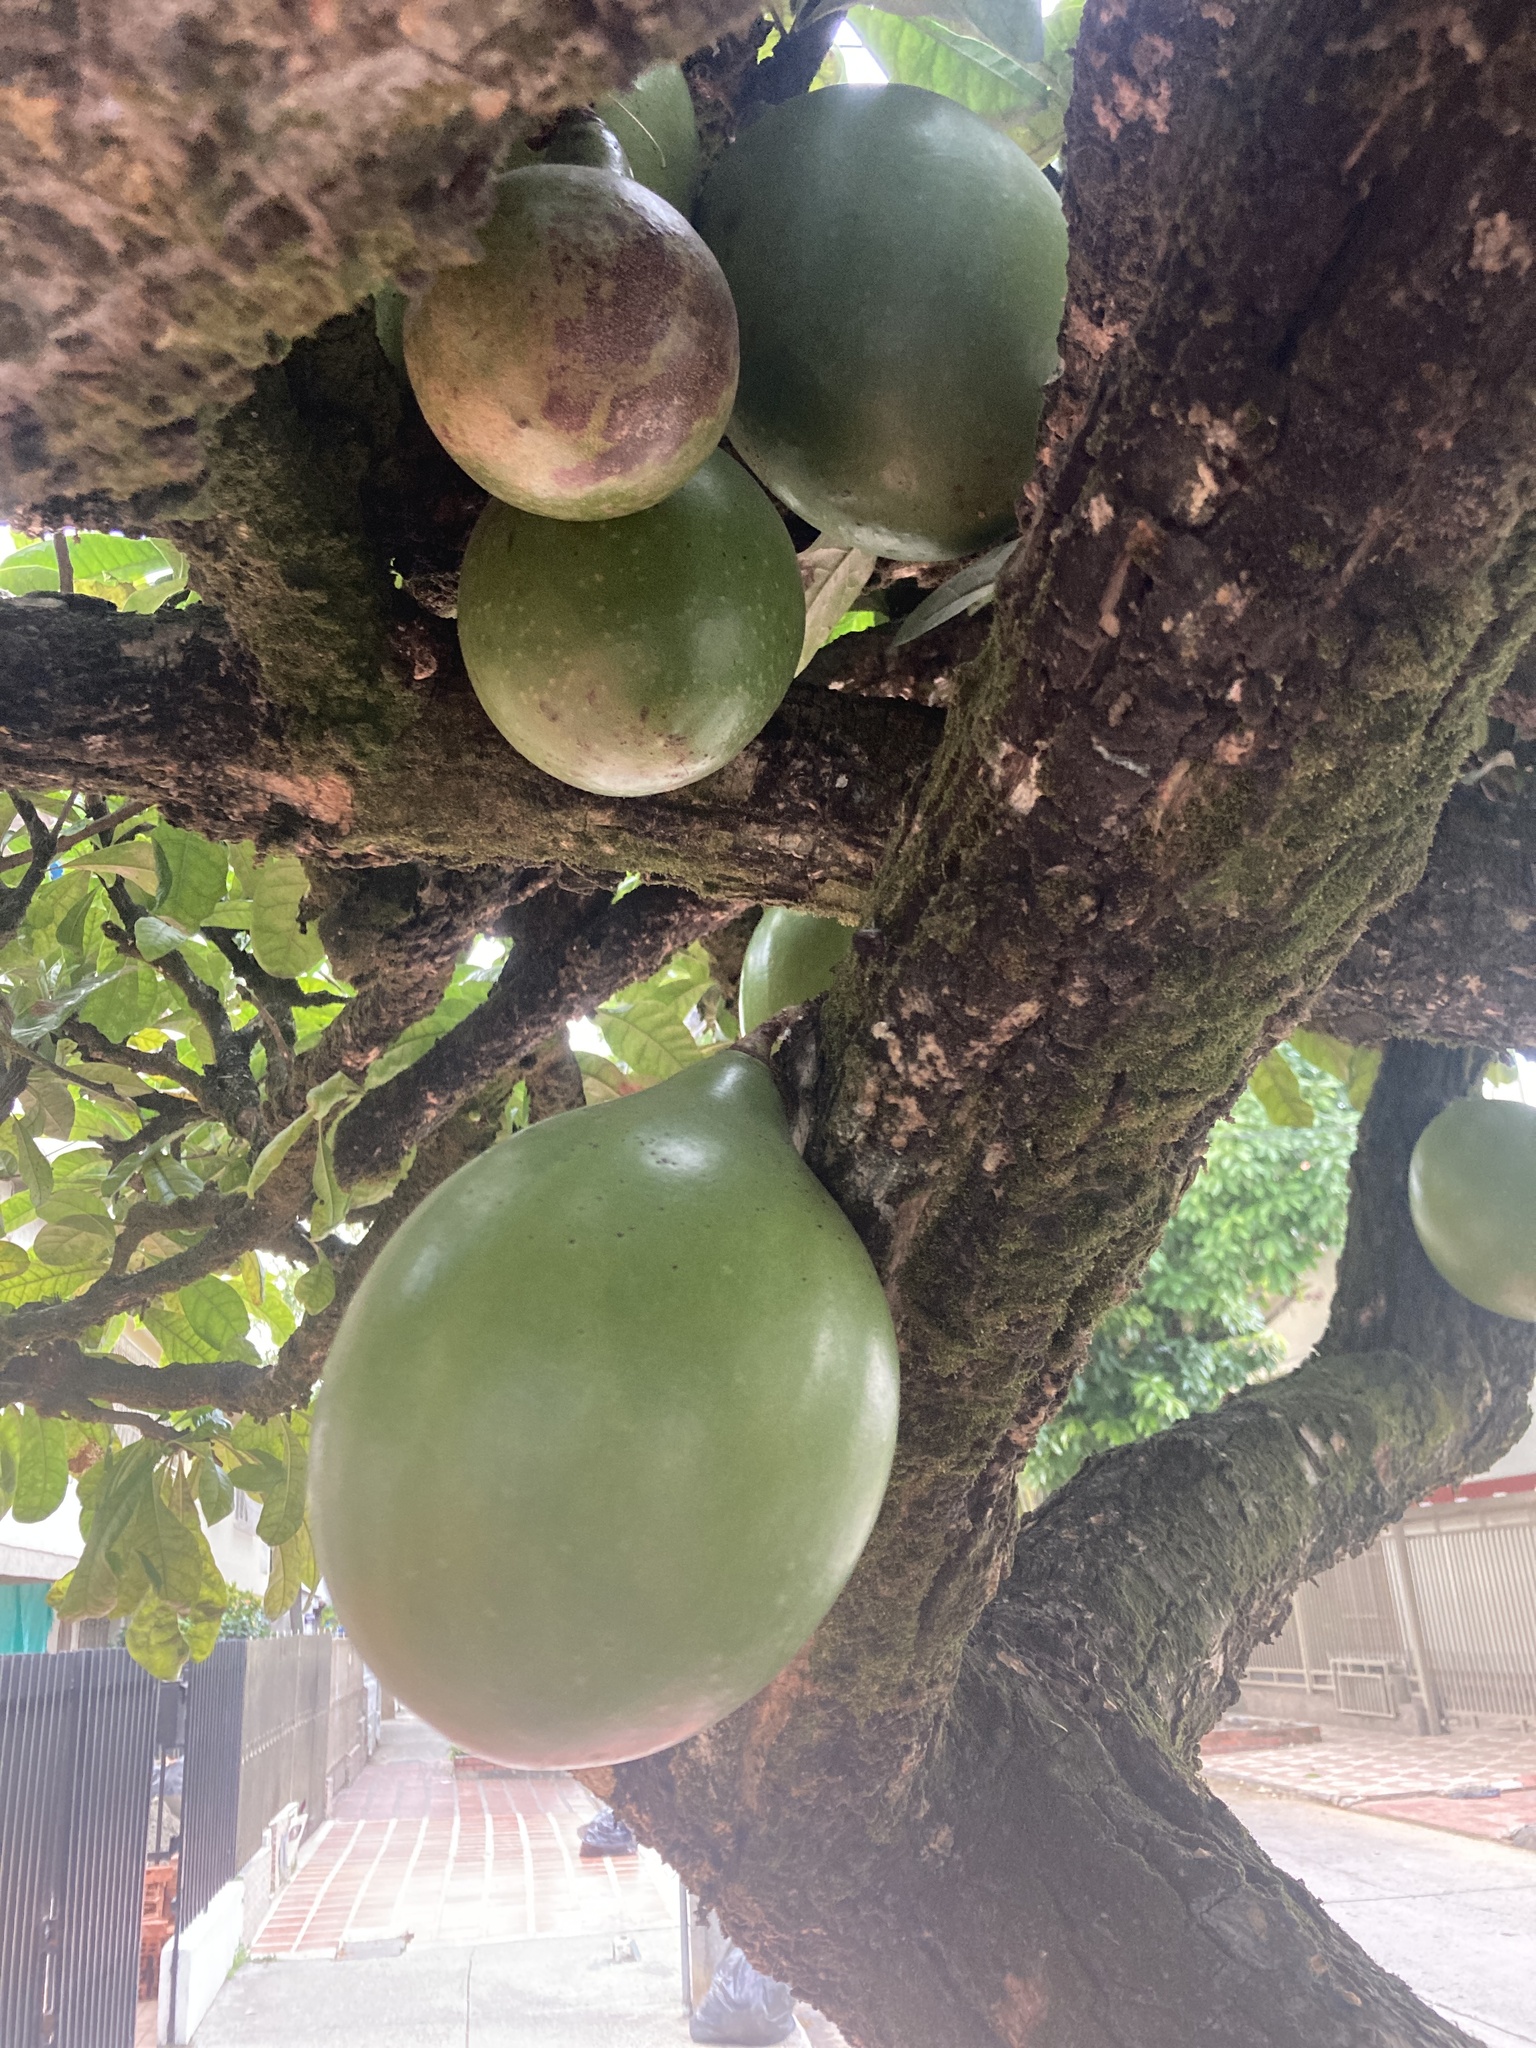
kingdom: Plantae
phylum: Tracheophyta
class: Magnoliopsida
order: Lamiales
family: Bignoniaceae
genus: Crescentia
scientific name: Crescentia cujete
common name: Calabash
